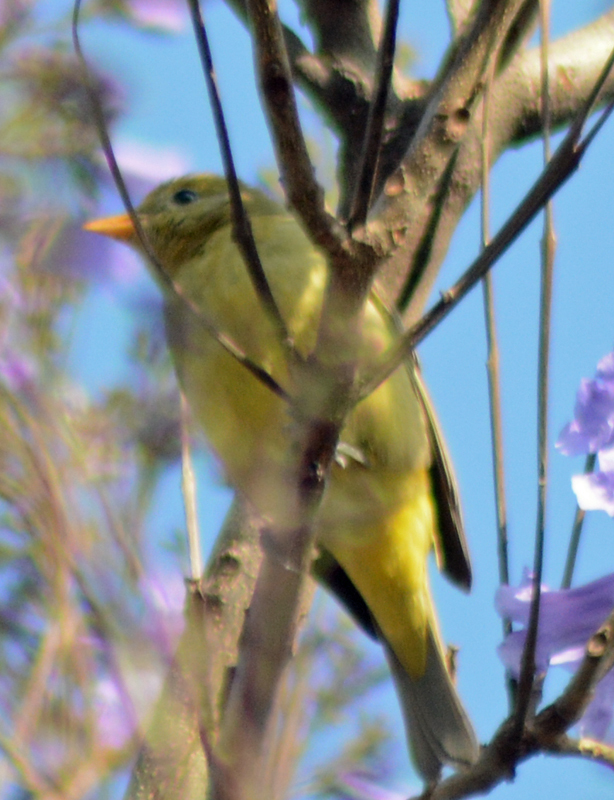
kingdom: Animalia
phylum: Chordata
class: Aves
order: Passeriformes
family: Cardinalidae
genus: Piranga
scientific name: Piranga ludoviciana
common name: Western tanager
